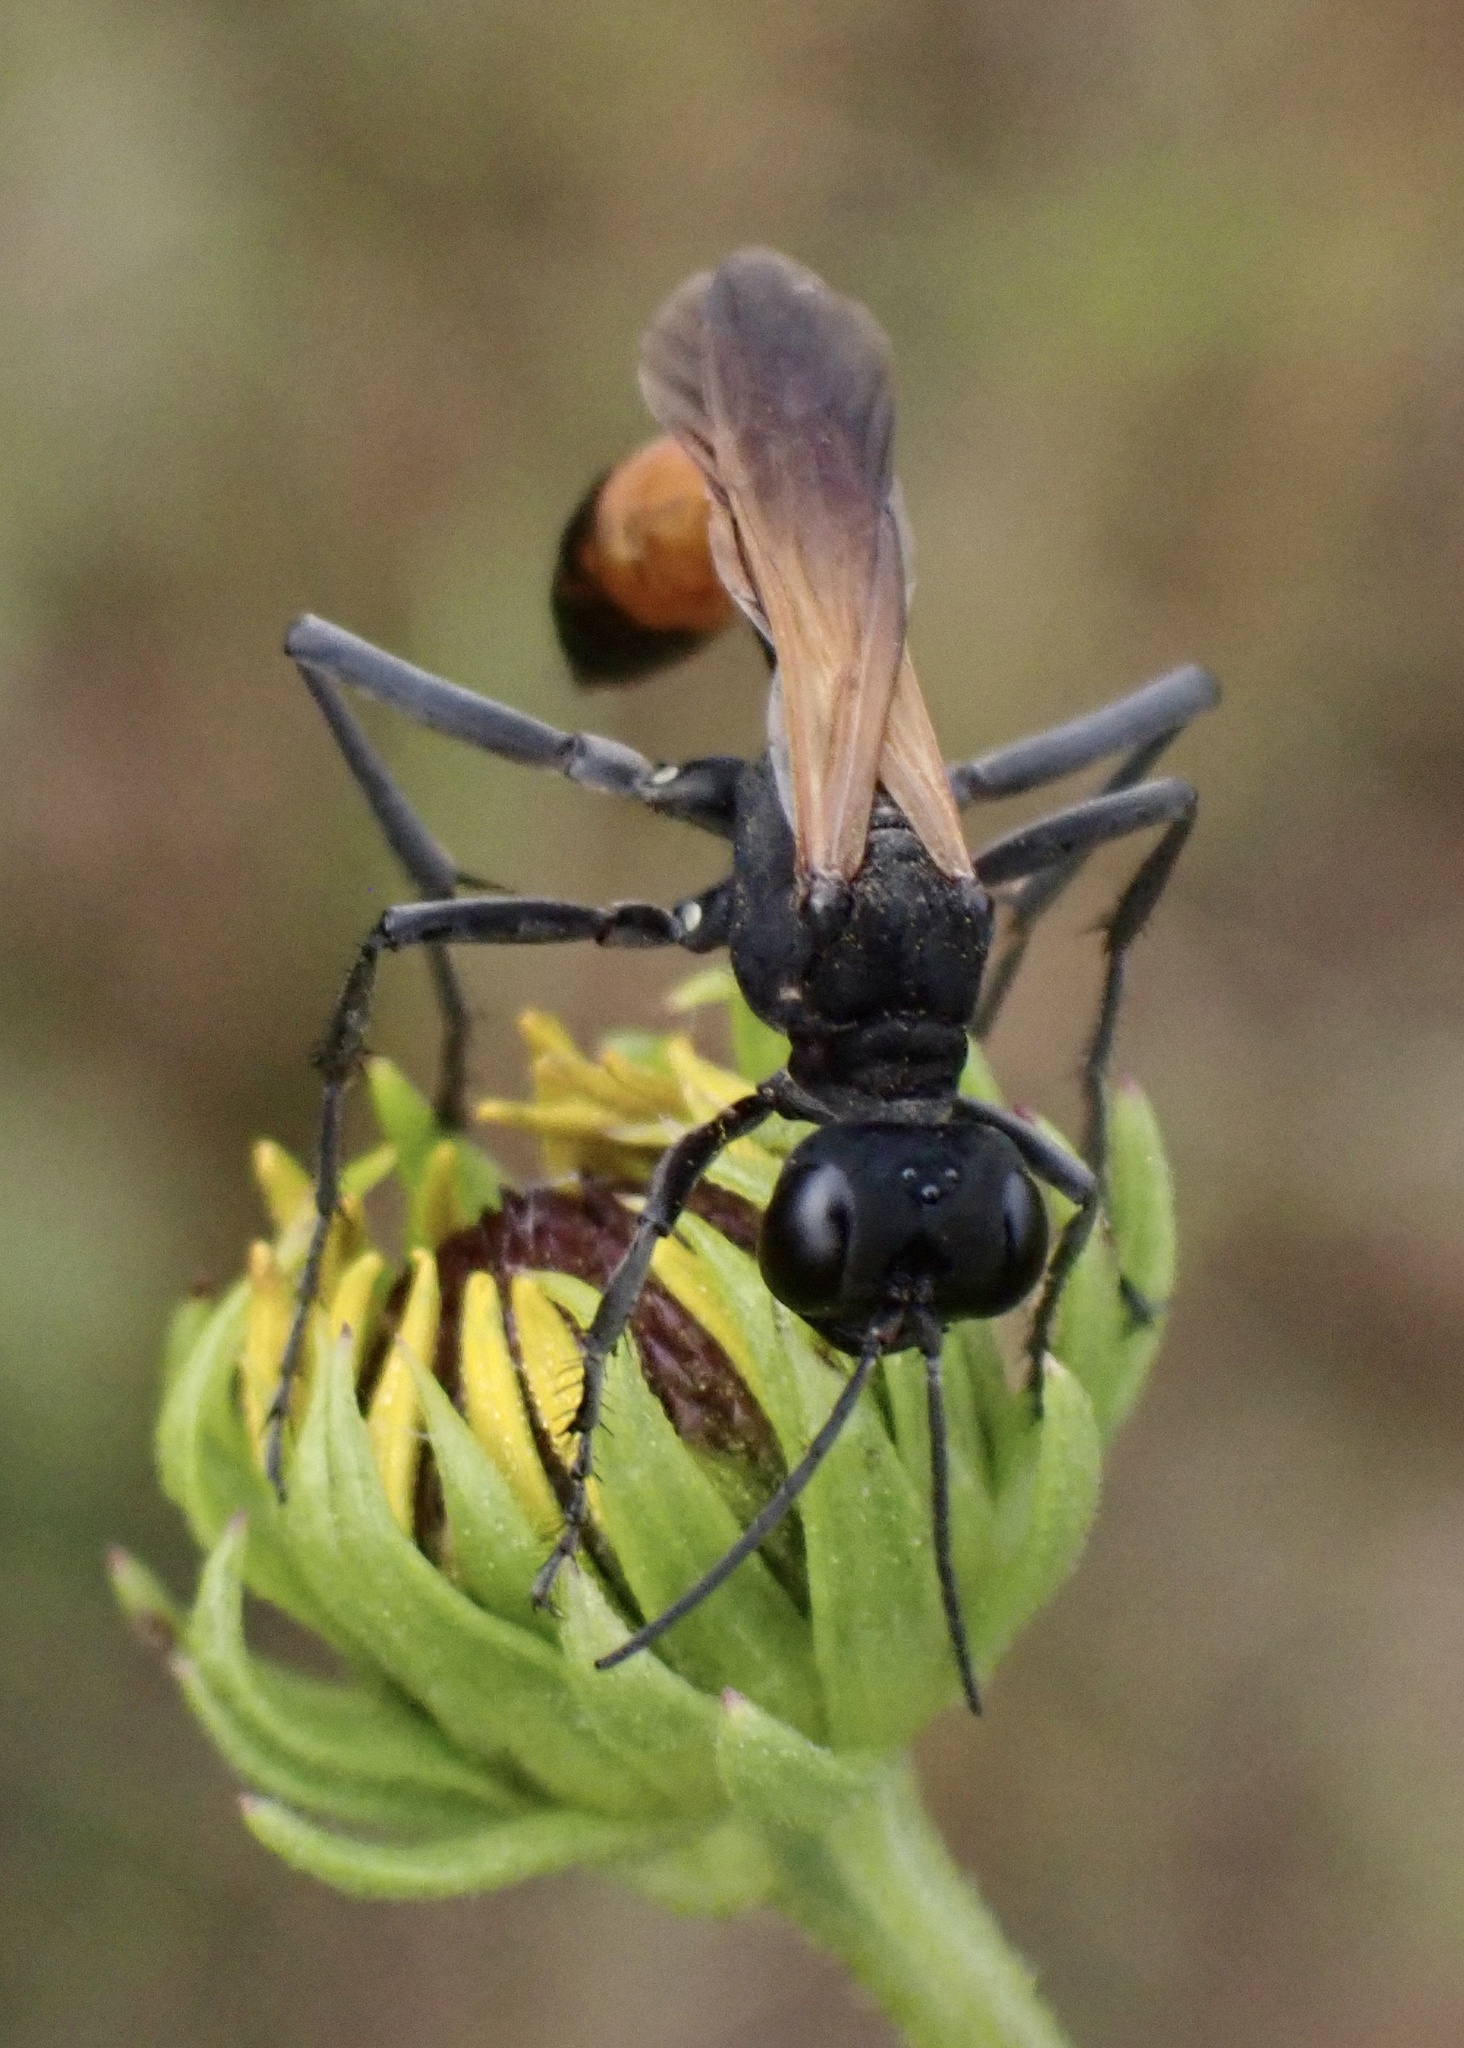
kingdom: Animalia
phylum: Arthropoda
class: Insecta
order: Hymenoptera
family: Sphecidae
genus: Ammophila
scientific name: Ammophila pictipennis
